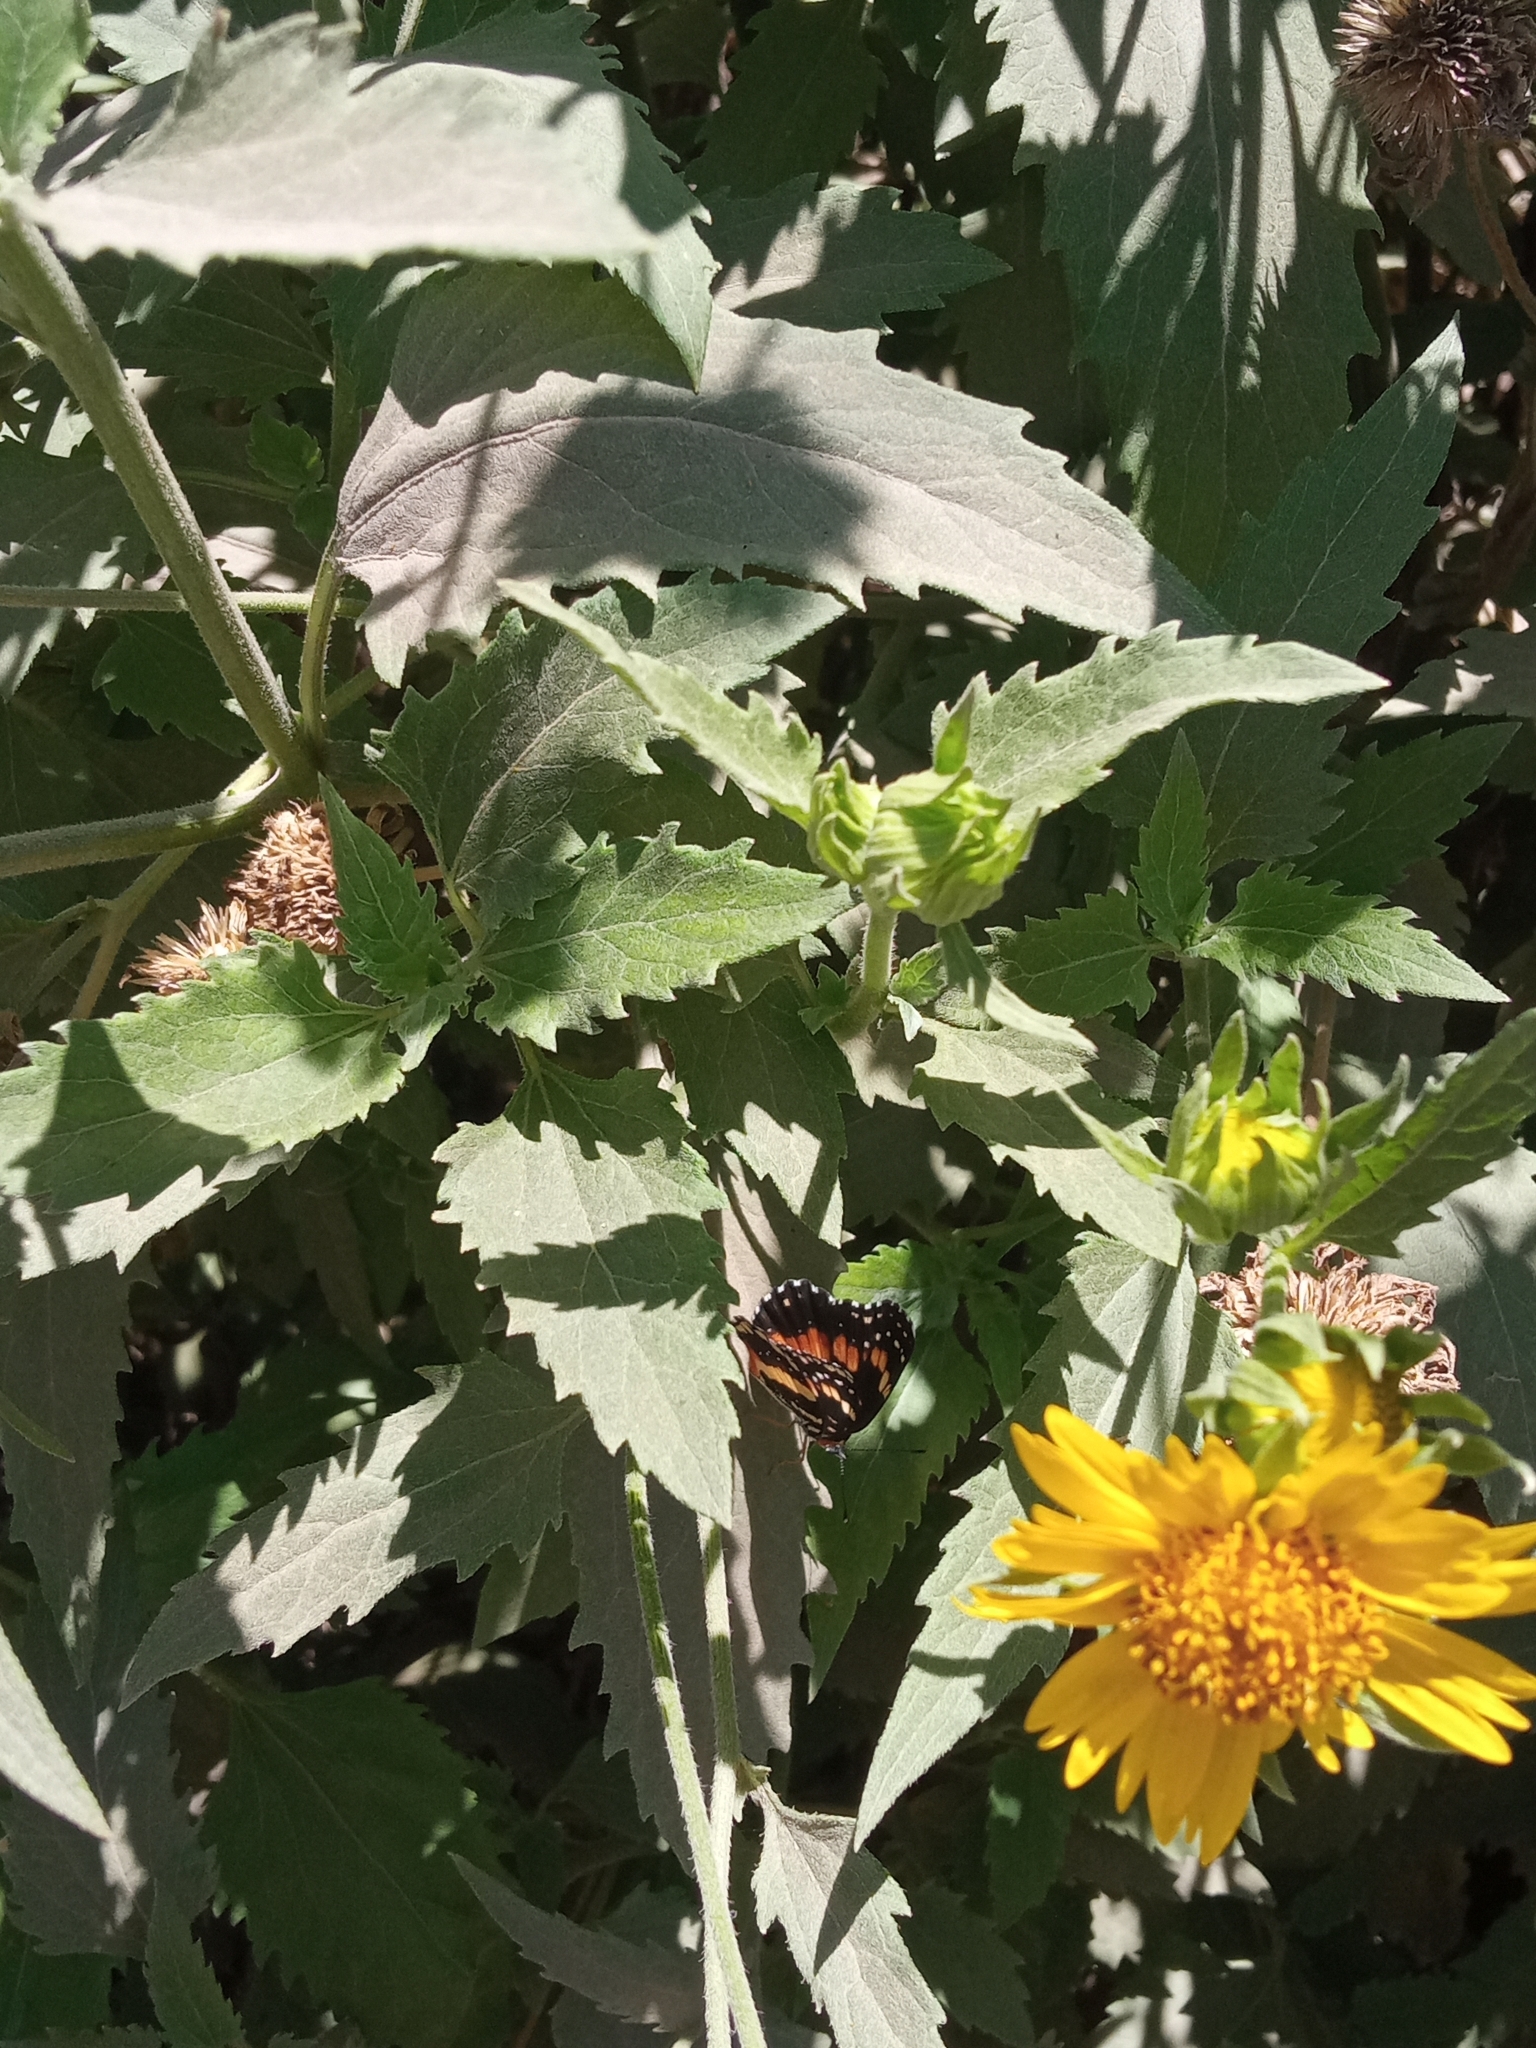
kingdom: Animalia
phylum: Arthropoda
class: Insecta
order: Lepidoptera
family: Nymphalidae
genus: Chlosyne
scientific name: Chlosyne lacinia
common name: Bordered patch
